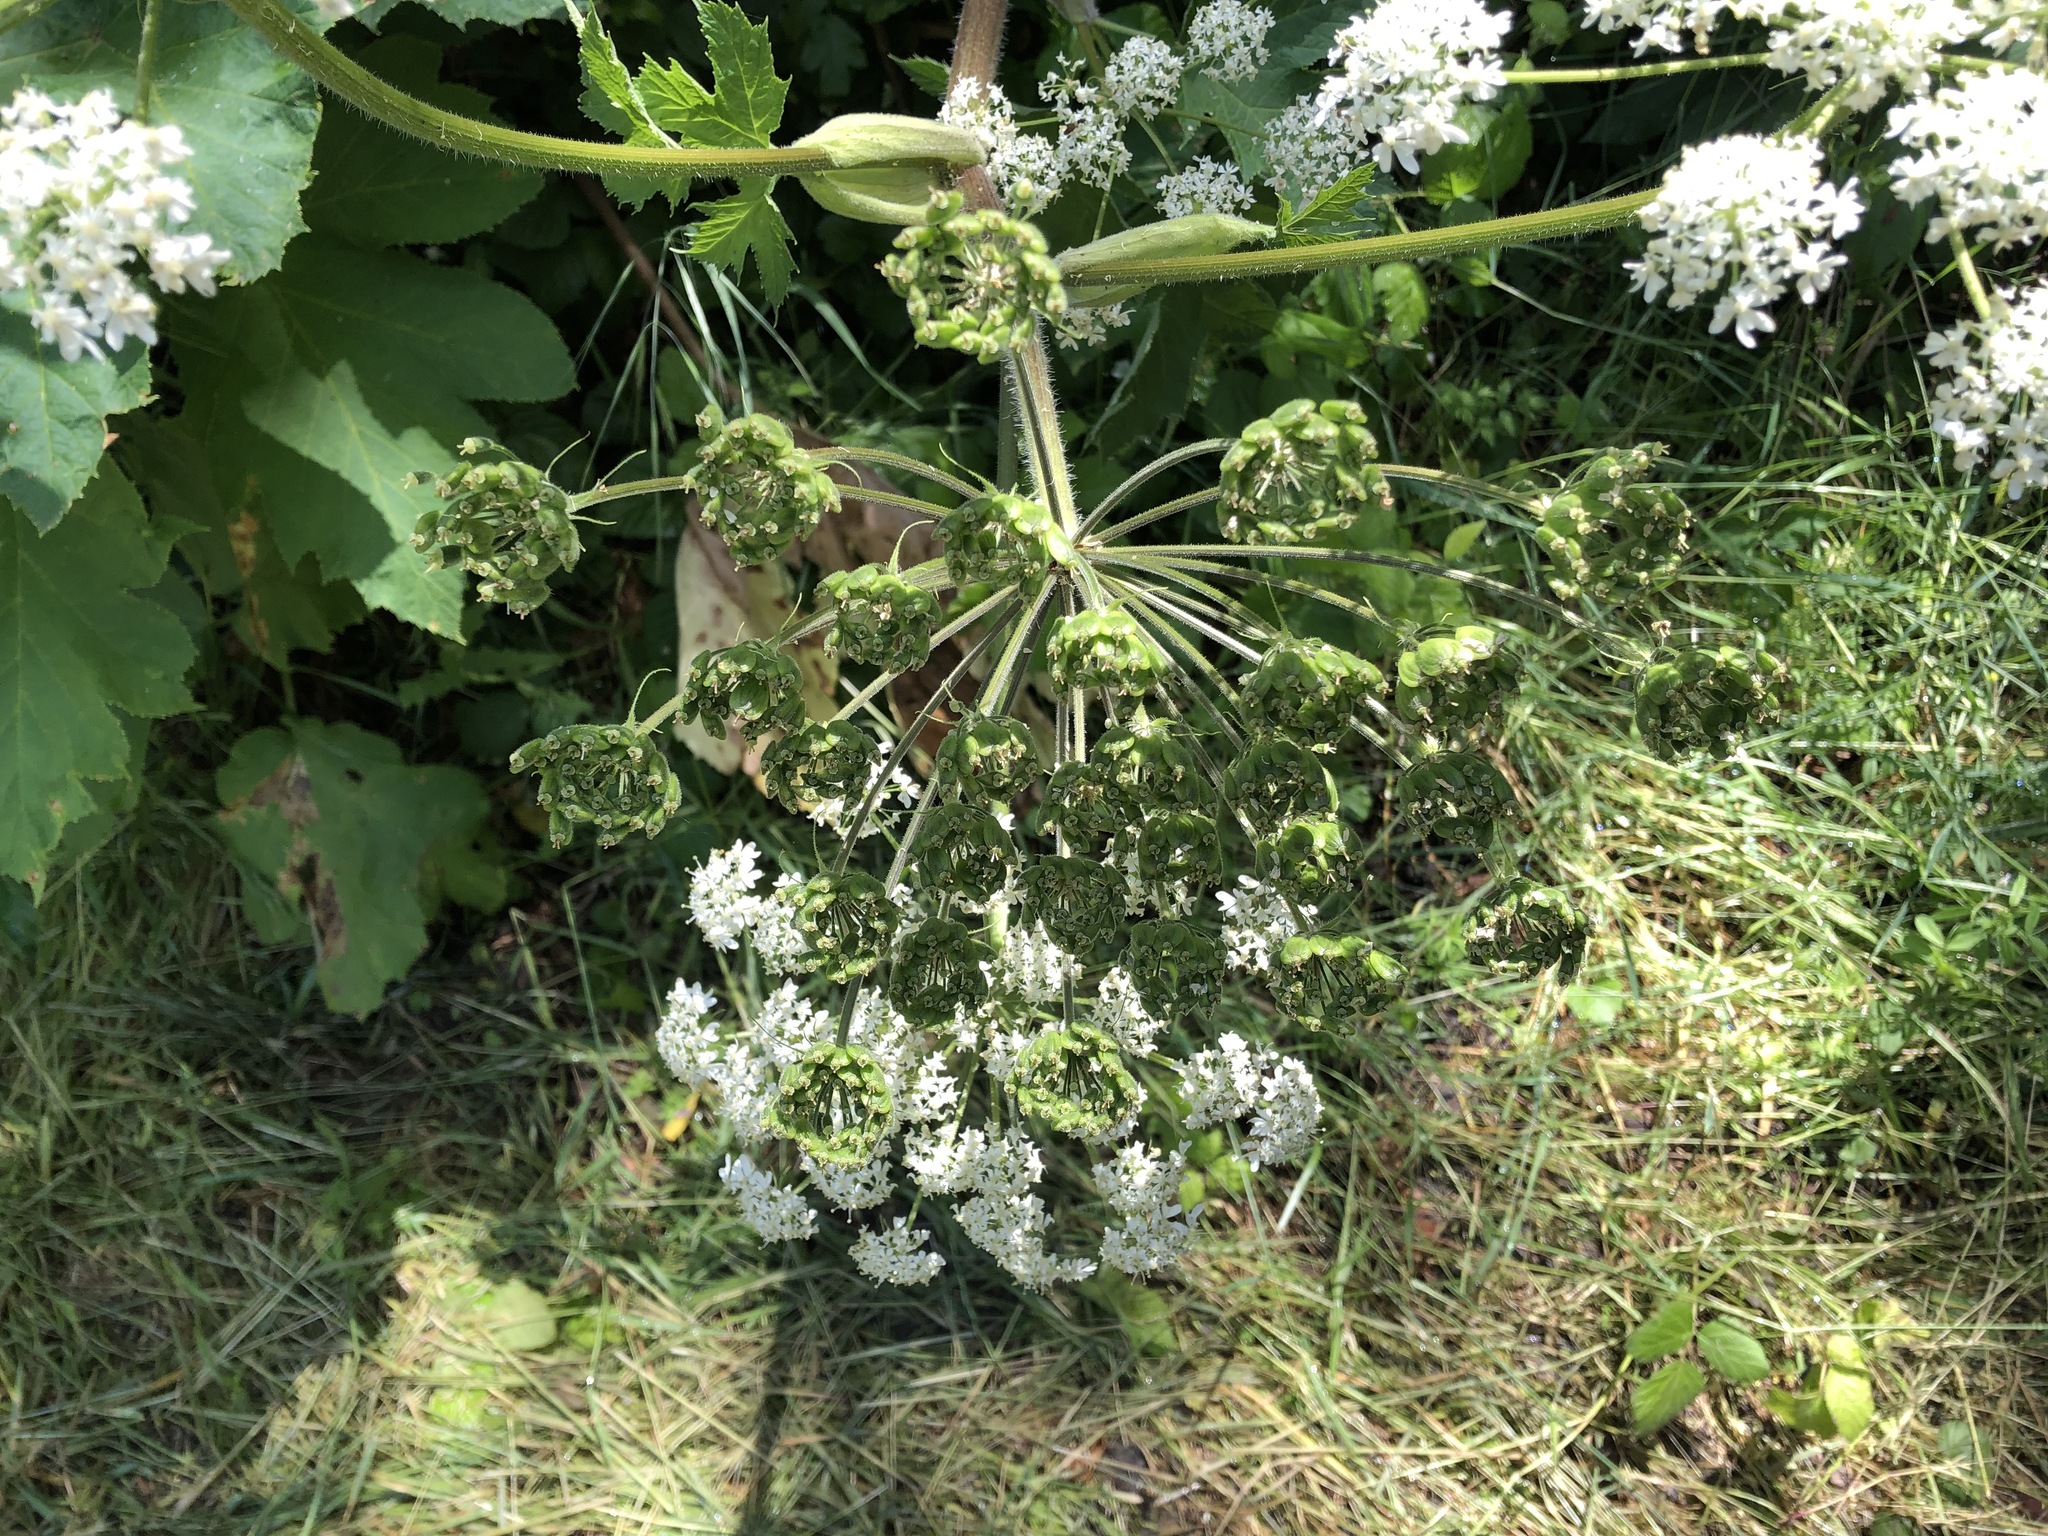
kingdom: Plantae
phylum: Tracheophyta
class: Magnoliopsida
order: Apiales
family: Apiaceae
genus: Heracleum
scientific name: Heracleum maximum
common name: American cow parsnip
